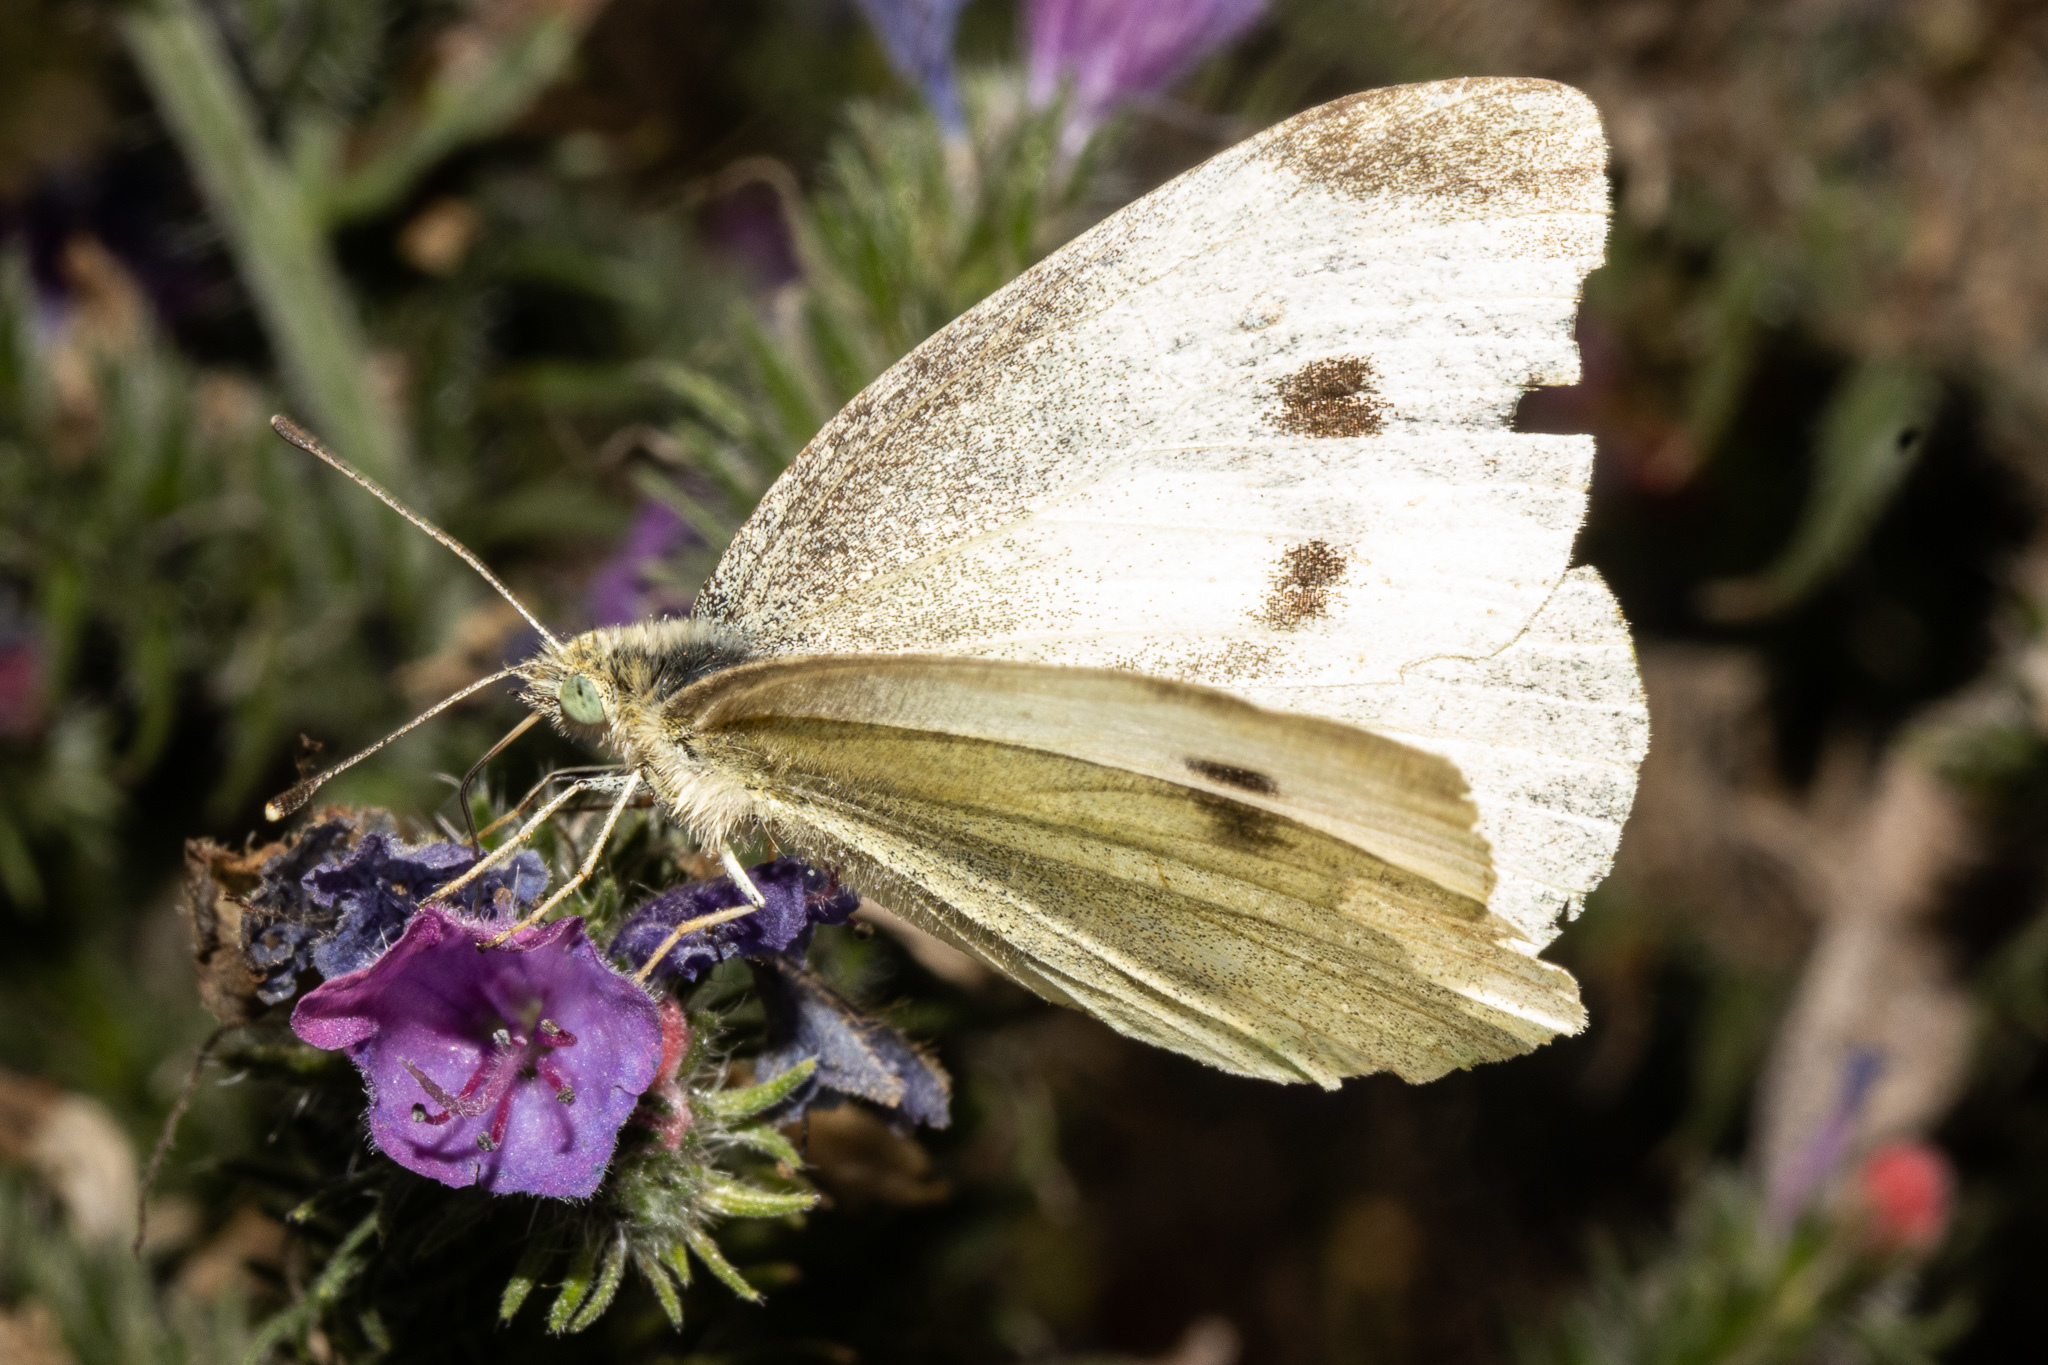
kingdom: Animalia
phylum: Arthropoda
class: Insecta
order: Lepidoptera
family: Pieridae
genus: Pieris
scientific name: Pieris rapae
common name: Small white
